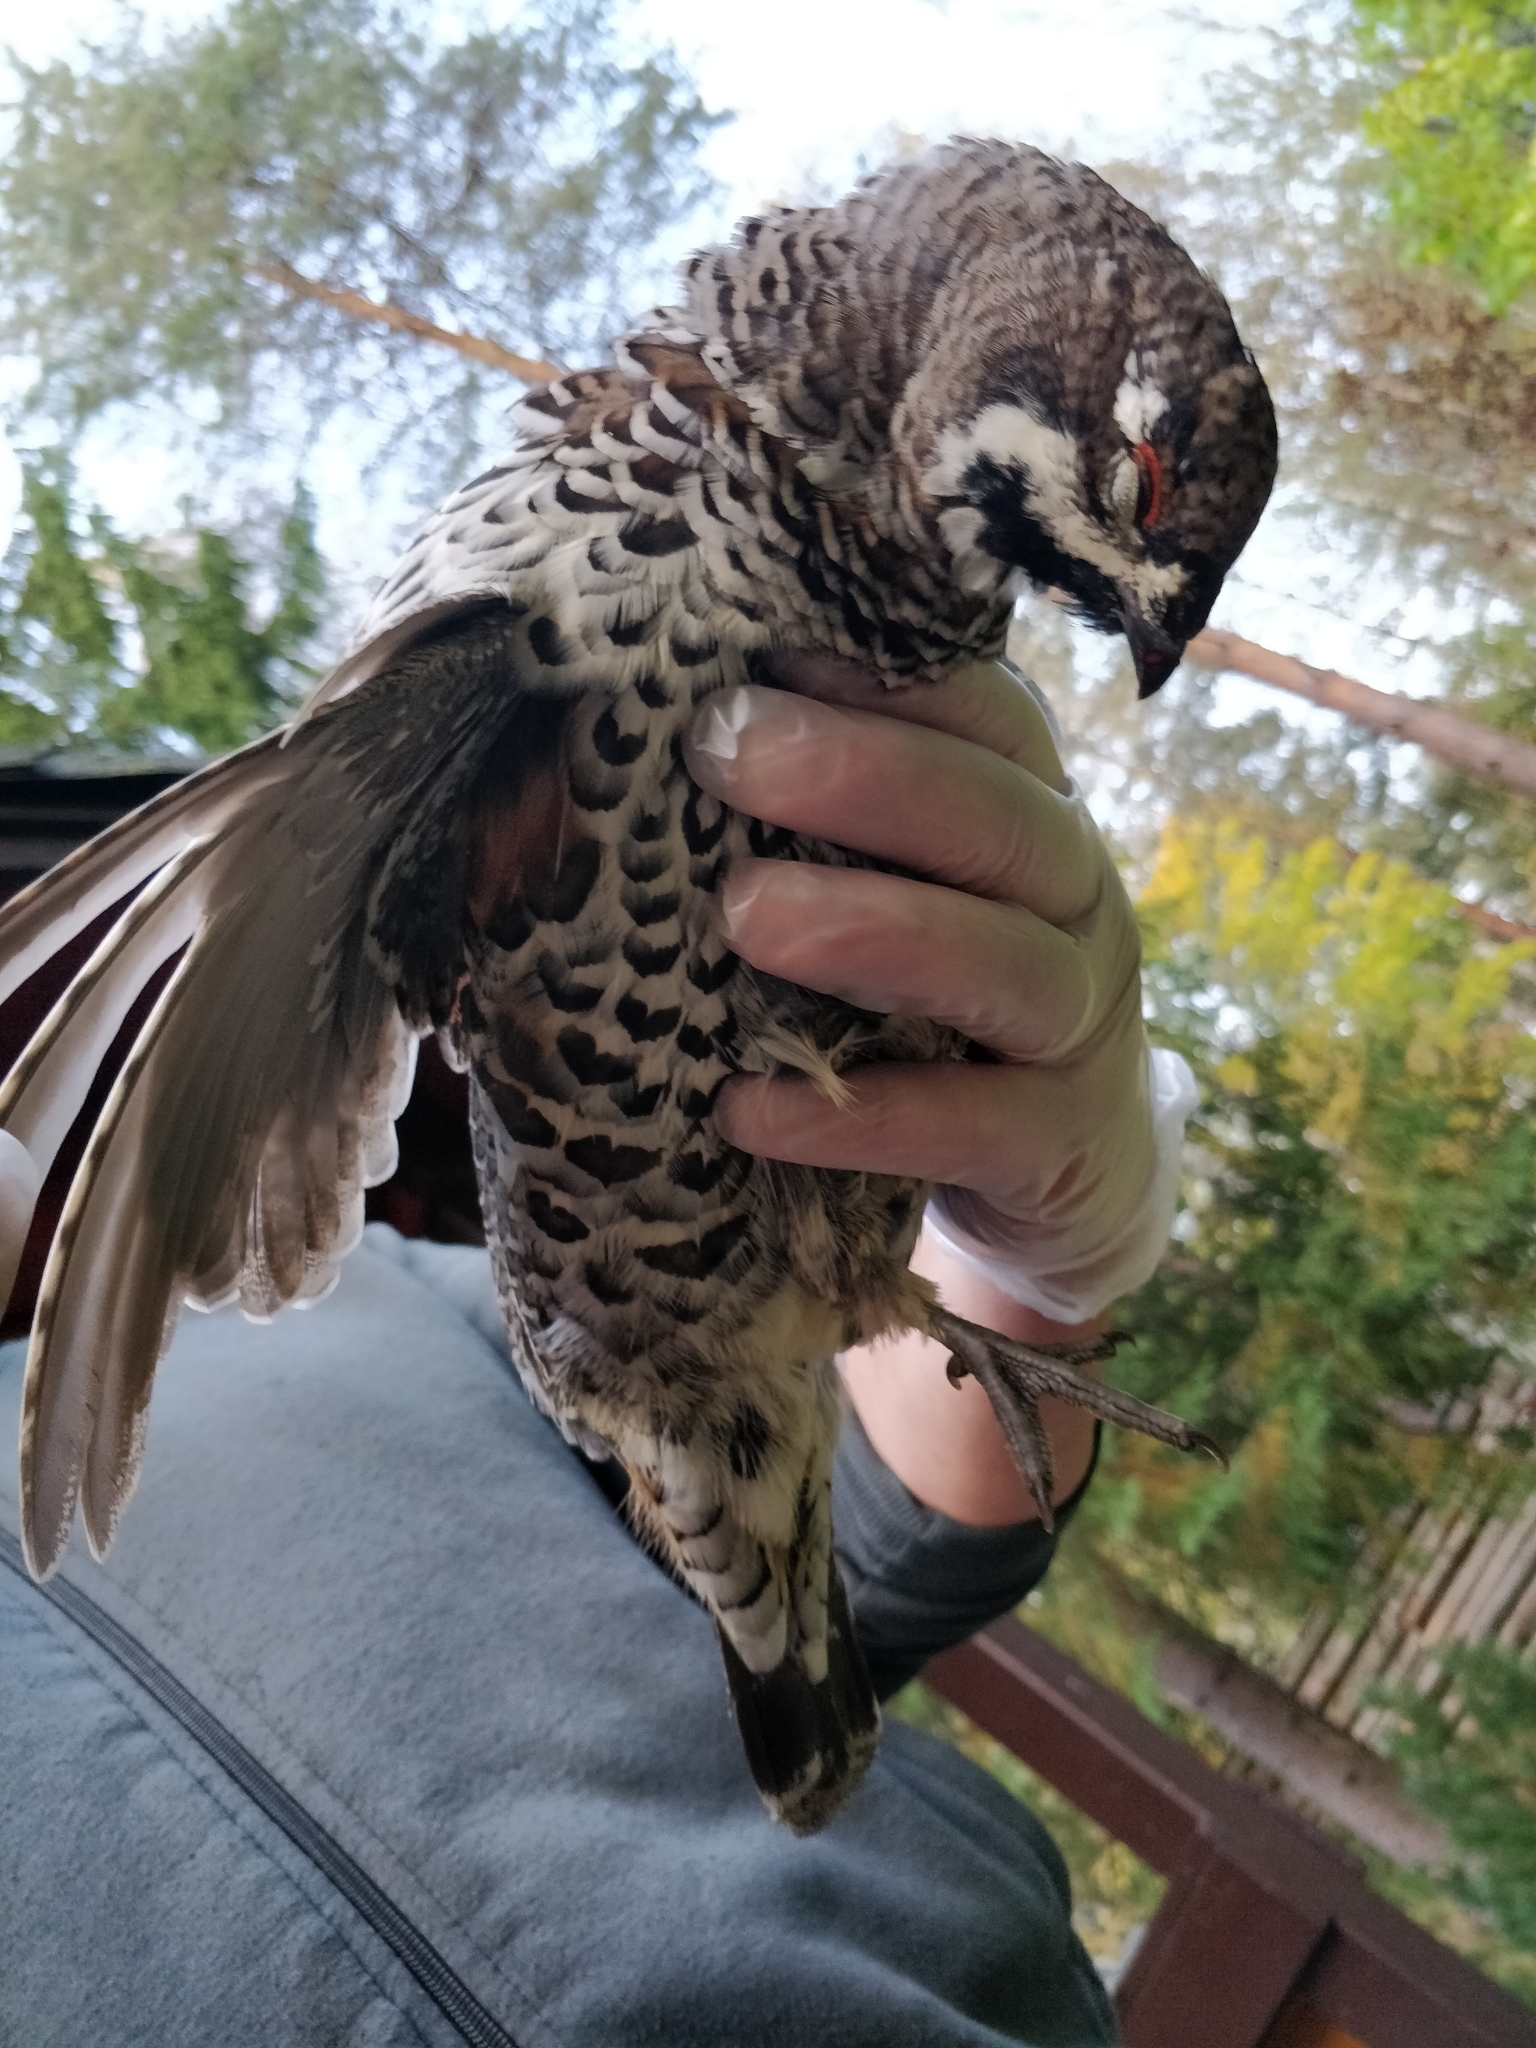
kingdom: Animalia
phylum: Chordata
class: Aves
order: Galliformes
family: Phasianidae
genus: Tetrastes
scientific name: Tetrastes bonasia
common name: Hazel grouse
